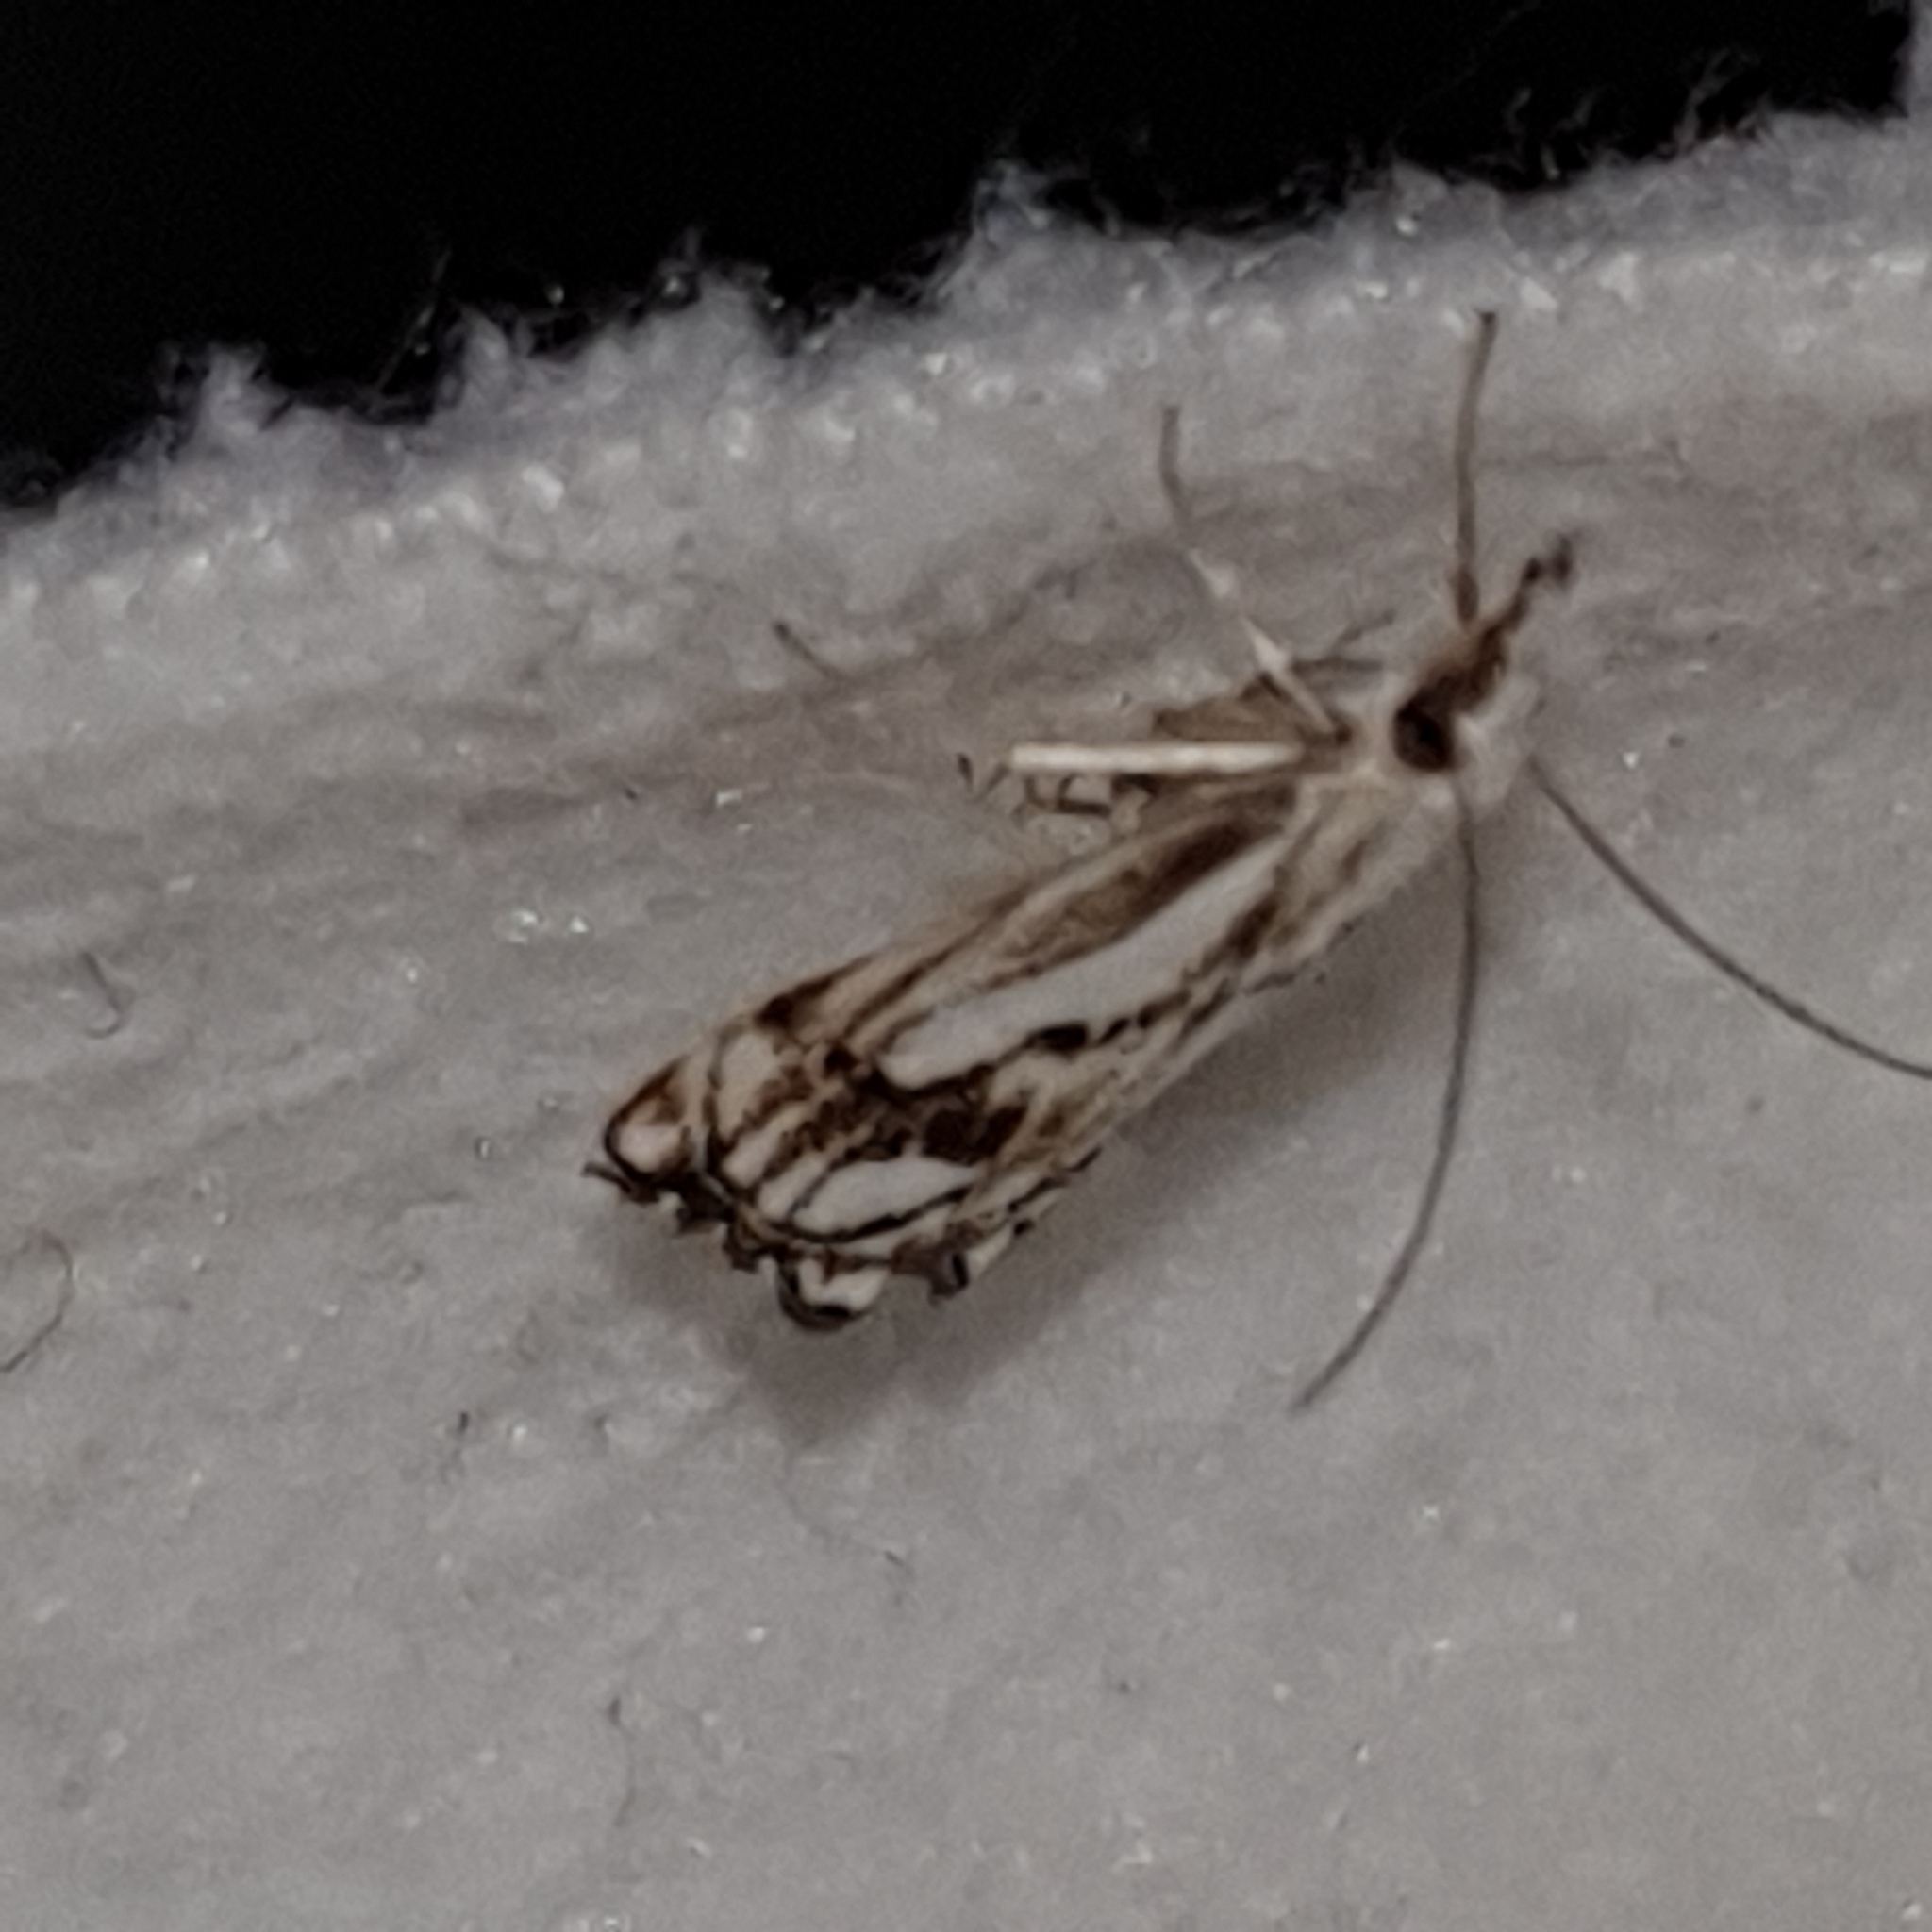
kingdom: Animalia
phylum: Arthropoda
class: Insecta
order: Lepidoptera
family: Crambidae
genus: Catoptria
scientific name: Catoptria falsella
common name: Chequered grass-veneer
